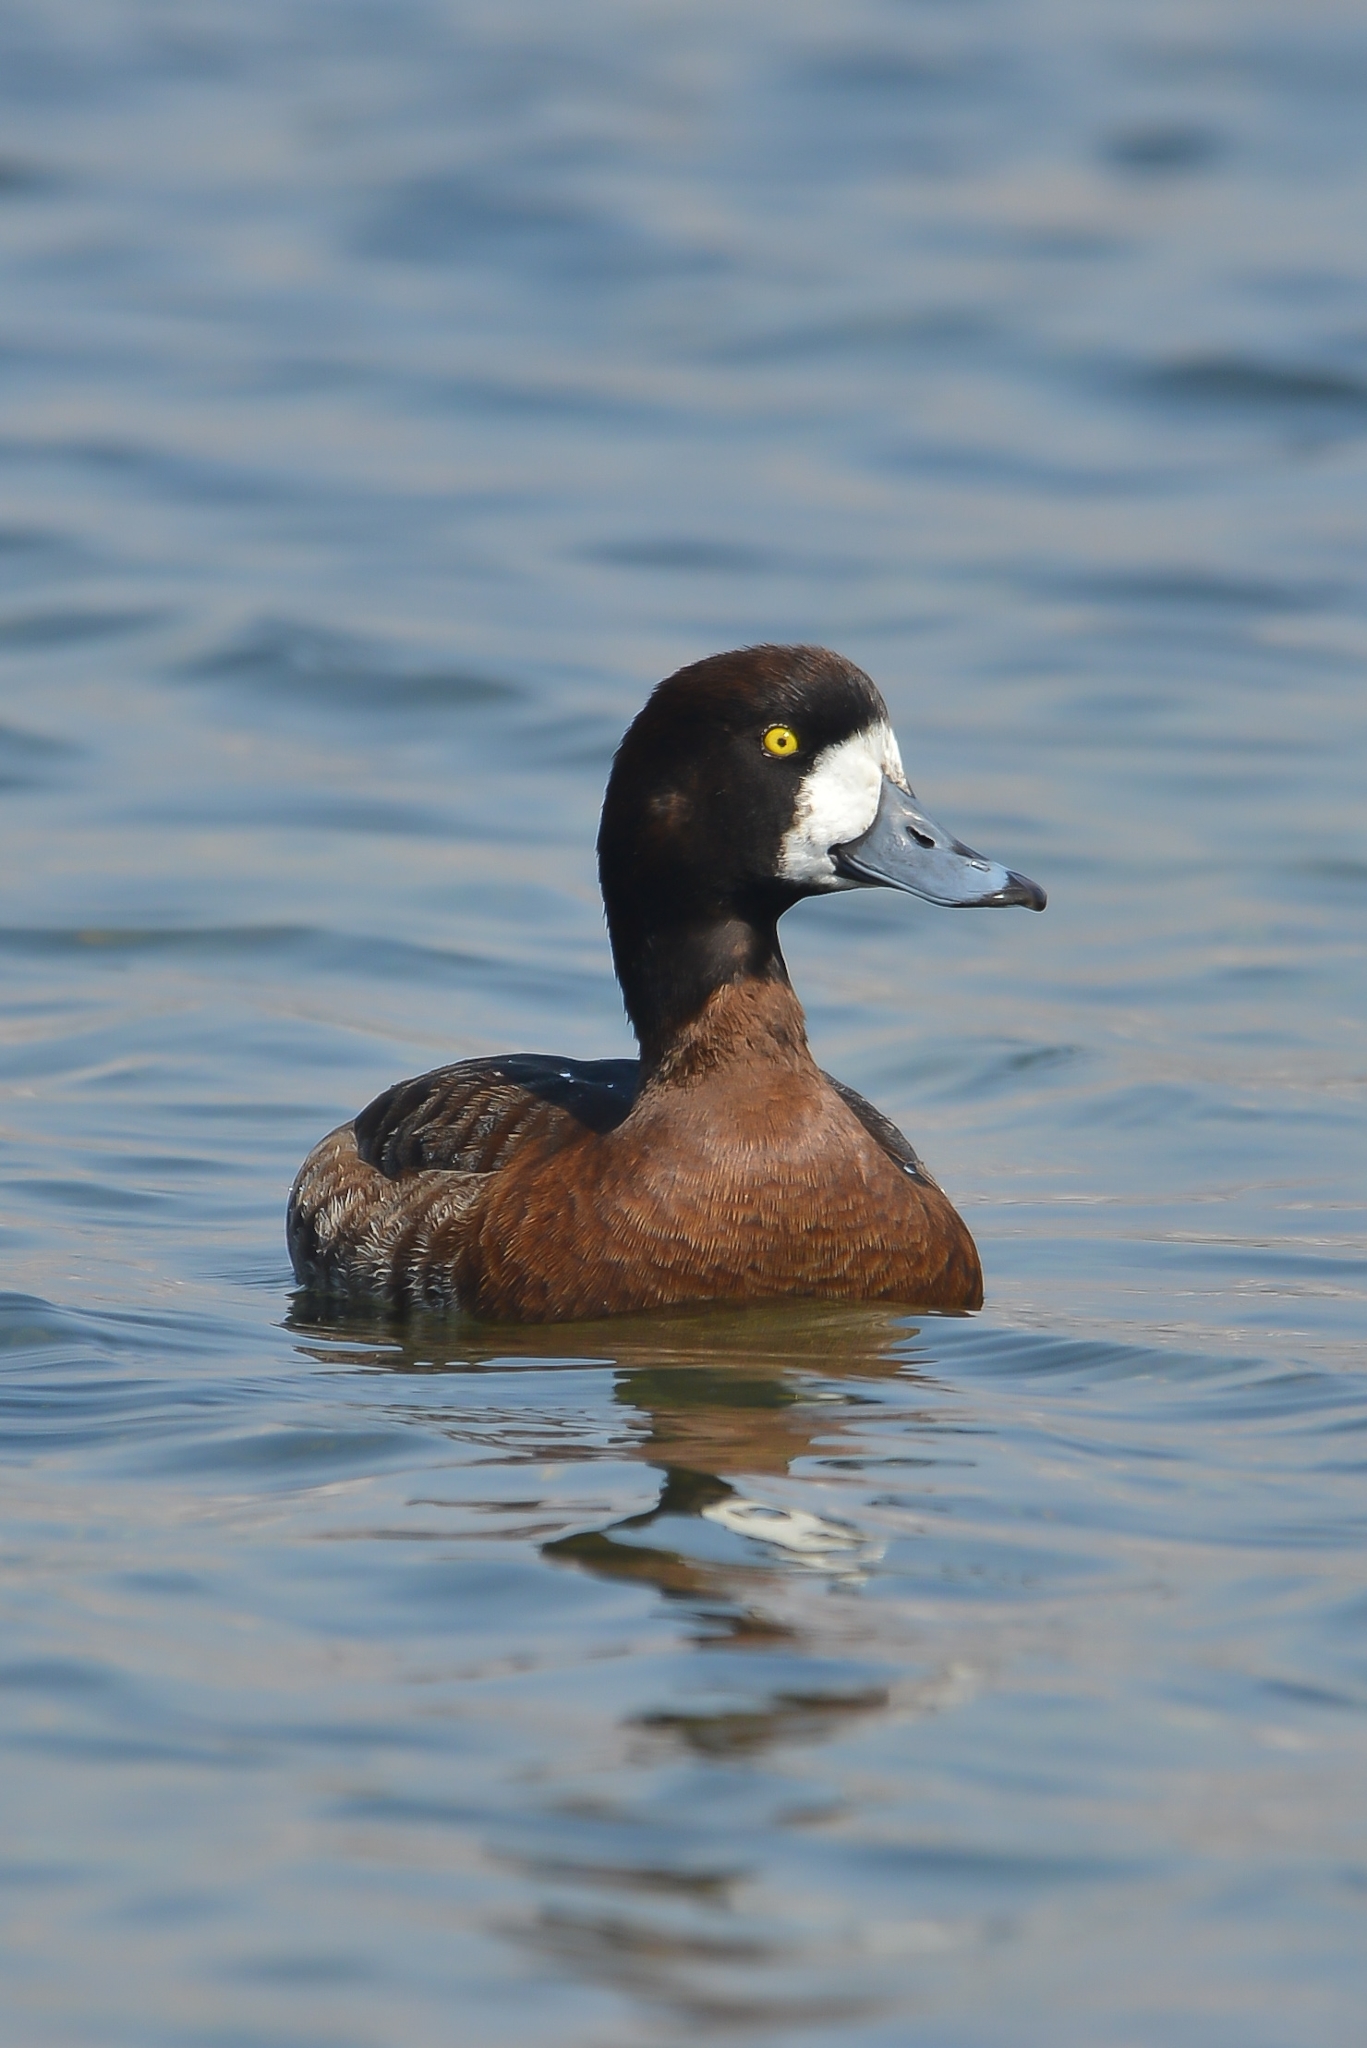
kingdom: Animalia
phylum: Chordata
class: Aves
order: Anseriformes
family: Anatidae
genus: Aythya
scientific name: Aythya marila
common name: Greater scaup
